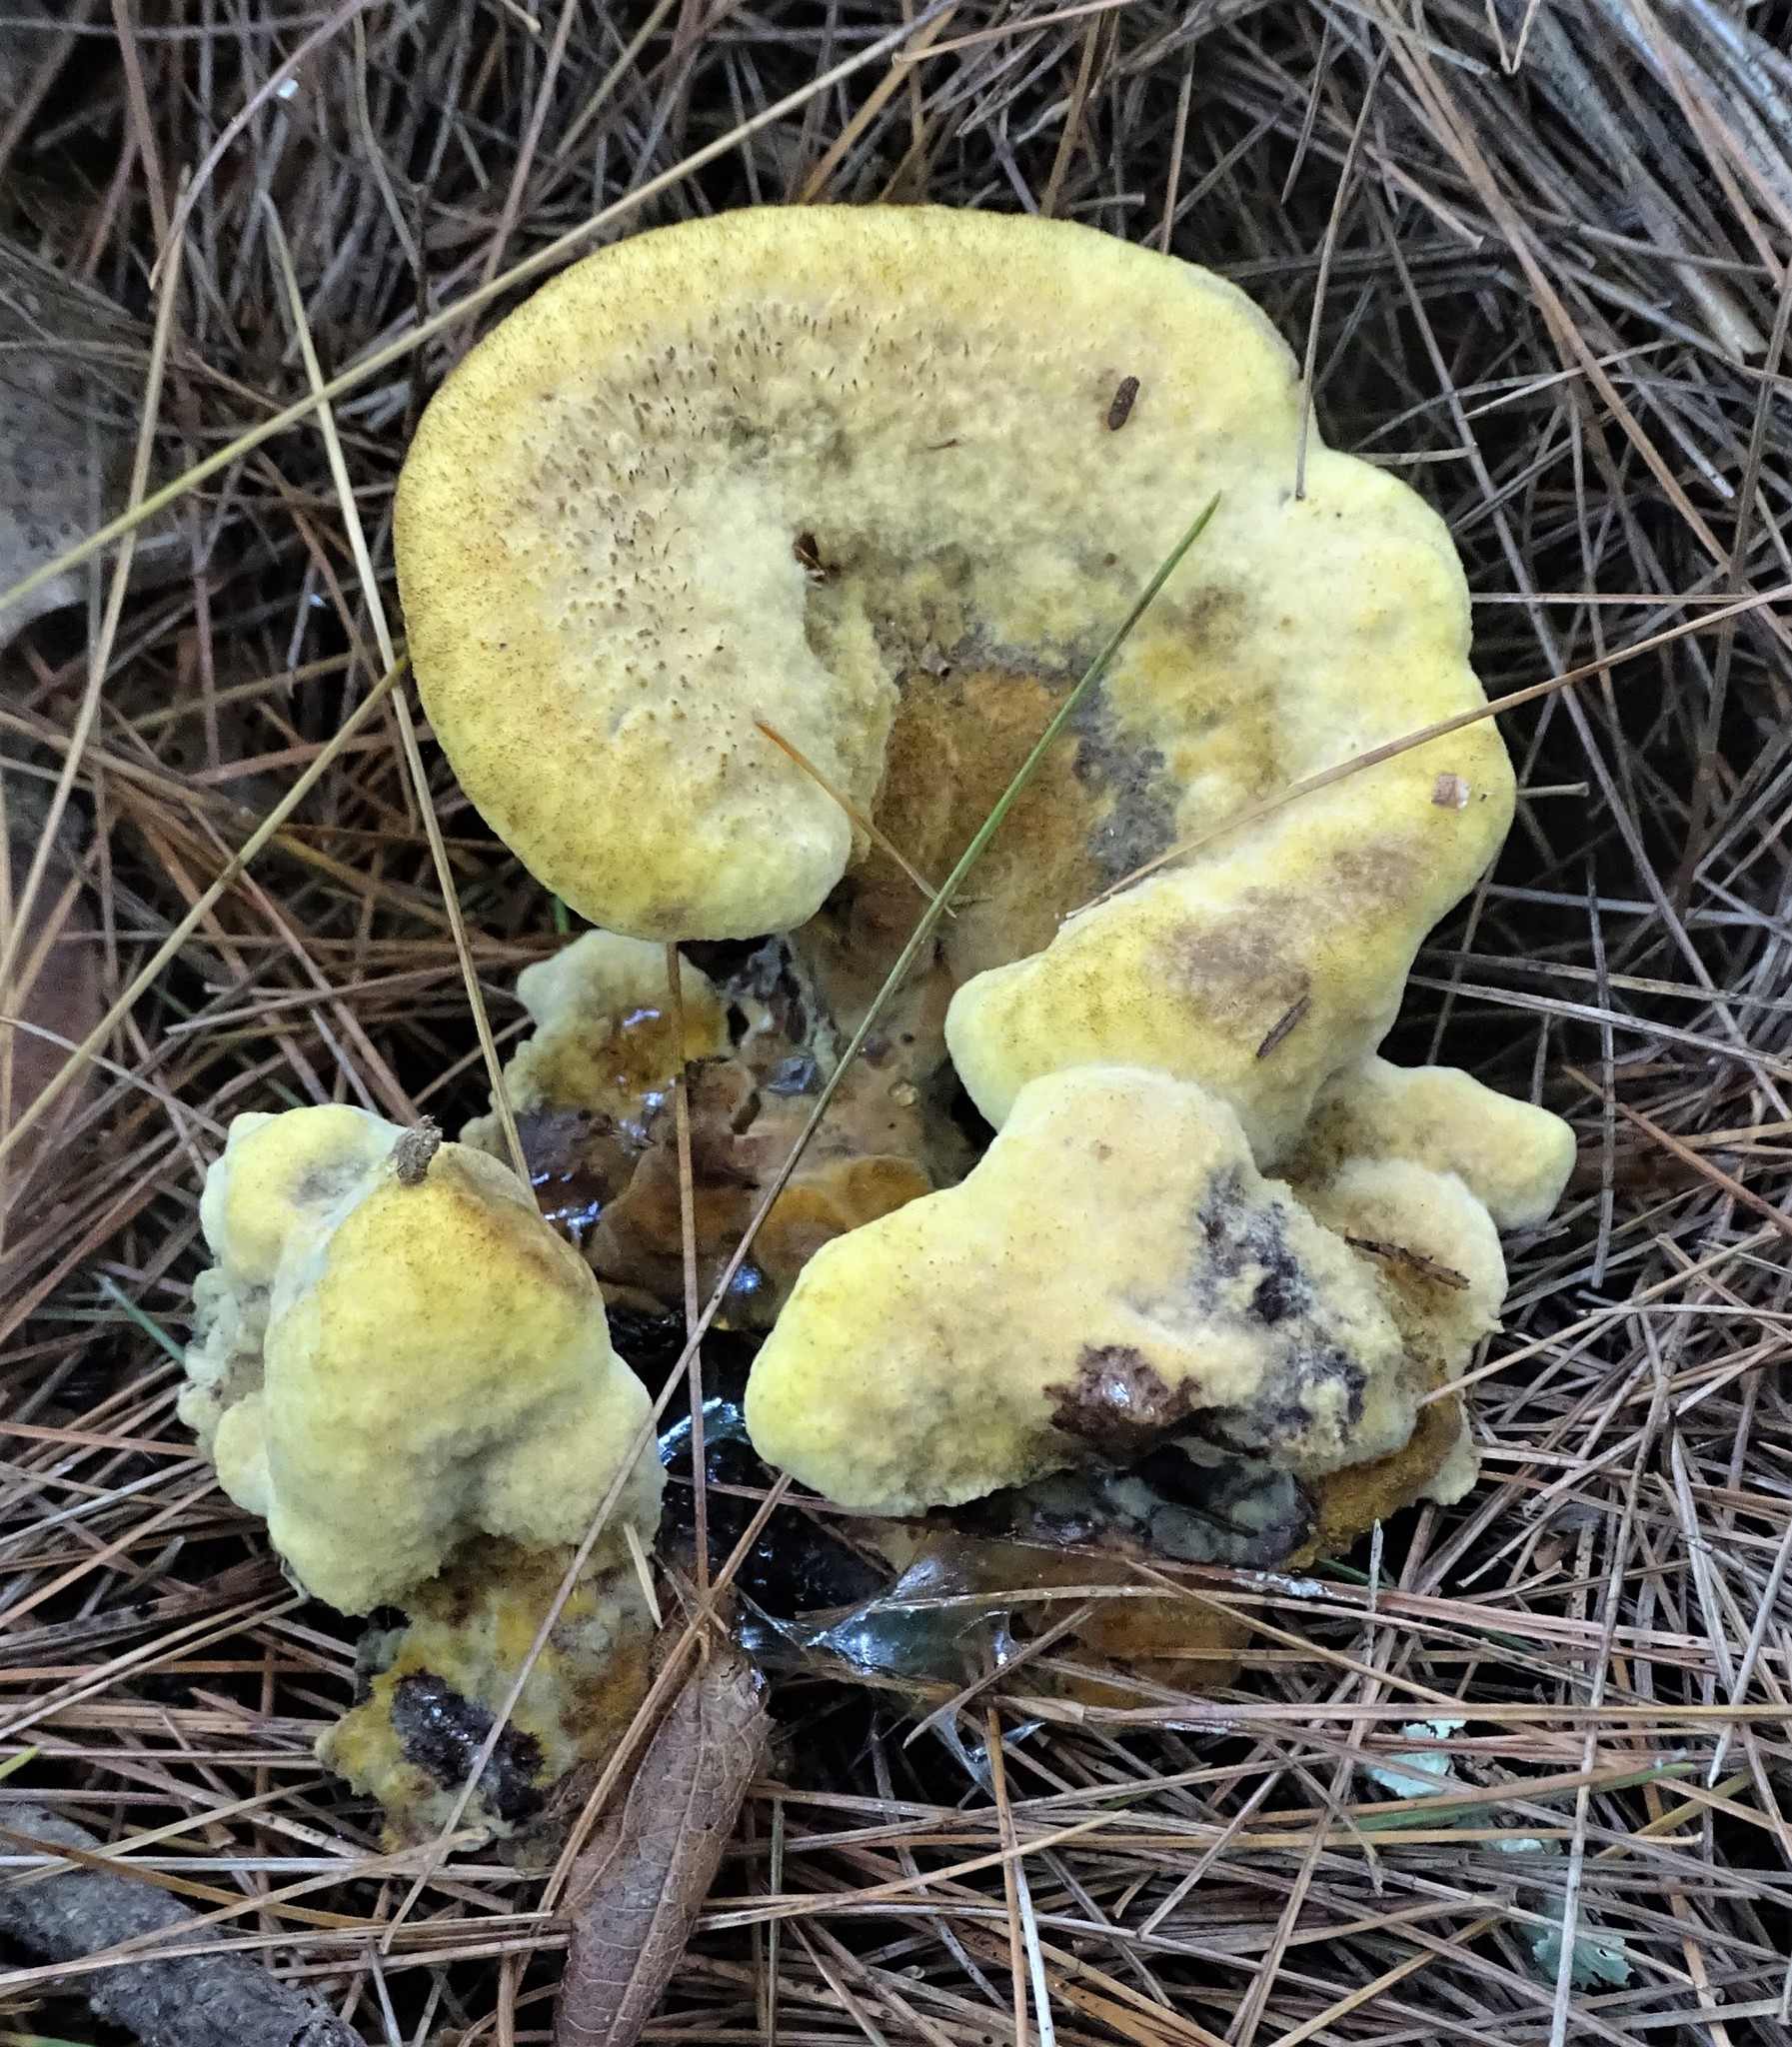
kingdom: Fungi
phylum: Basidiomycota
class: Agaricomycetes
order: Polyporales
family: Laetiporaceae
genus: Phaeolus
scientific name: Phaeolus schweinitzii
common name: Dyer's mazegill
